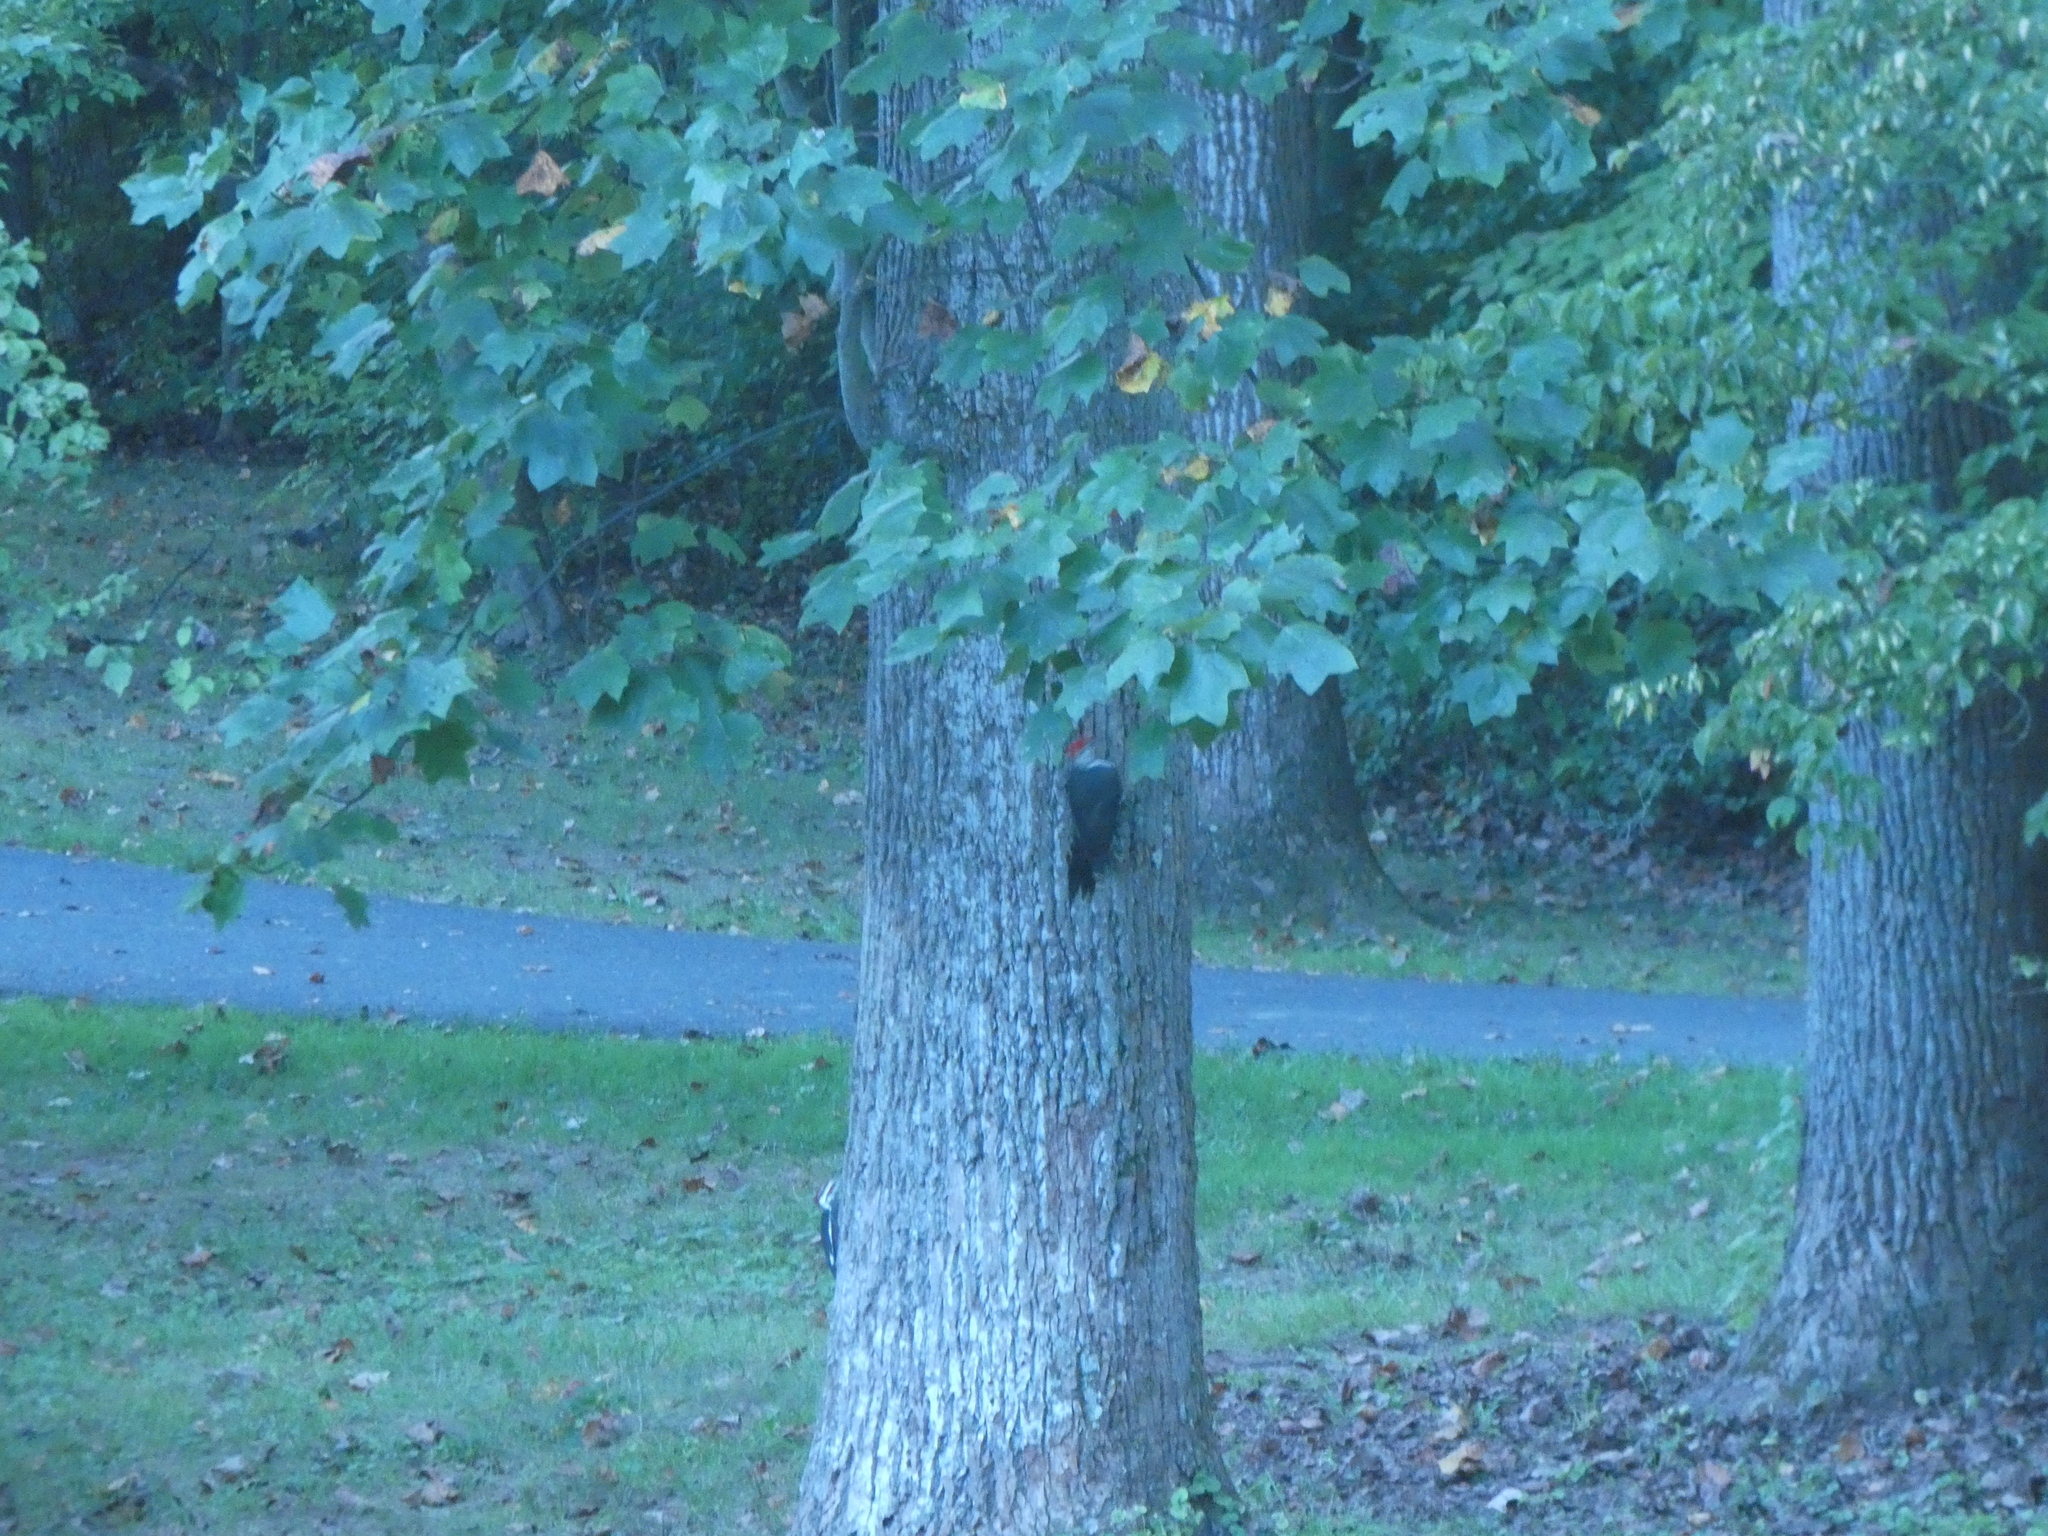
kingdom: Animalia
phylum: Chordata
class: Aves
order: Piciformes
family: Picidae
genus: Dryocopus
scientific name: Dryocopus pileatus
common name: Pileated woodpecker
